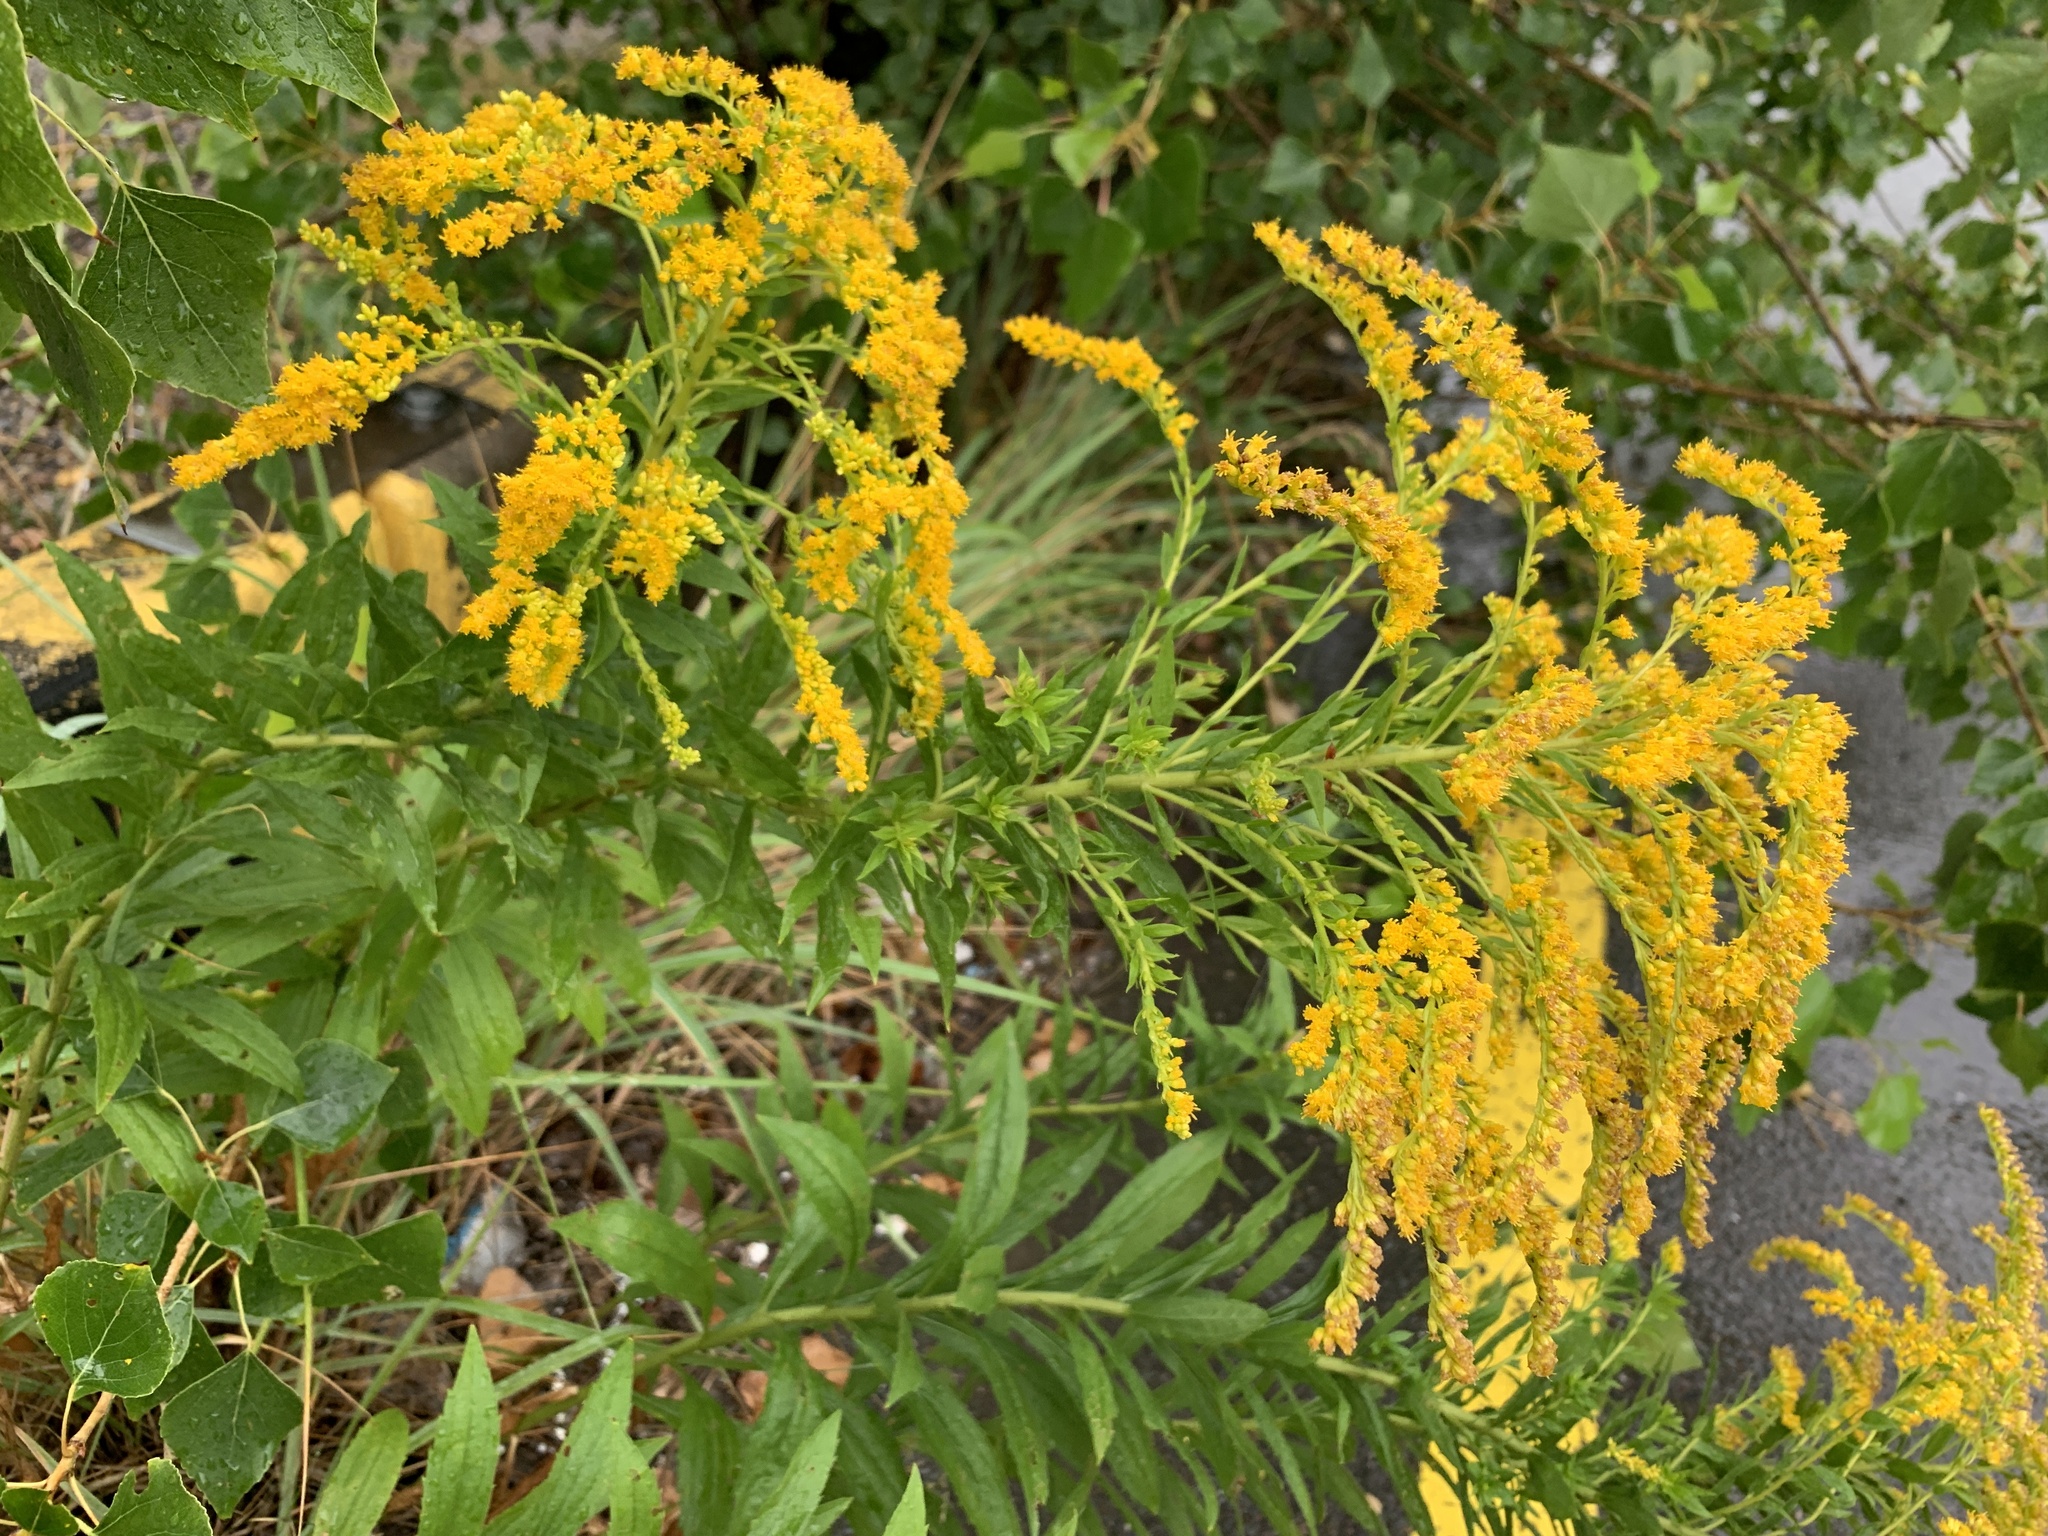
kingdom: Plantae
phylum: Tracheophyta
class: Magnoliopsida
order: Asterales
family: Asteraceae
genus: Solidago
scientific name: Solidago canadensis
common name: Canada goldenrod
